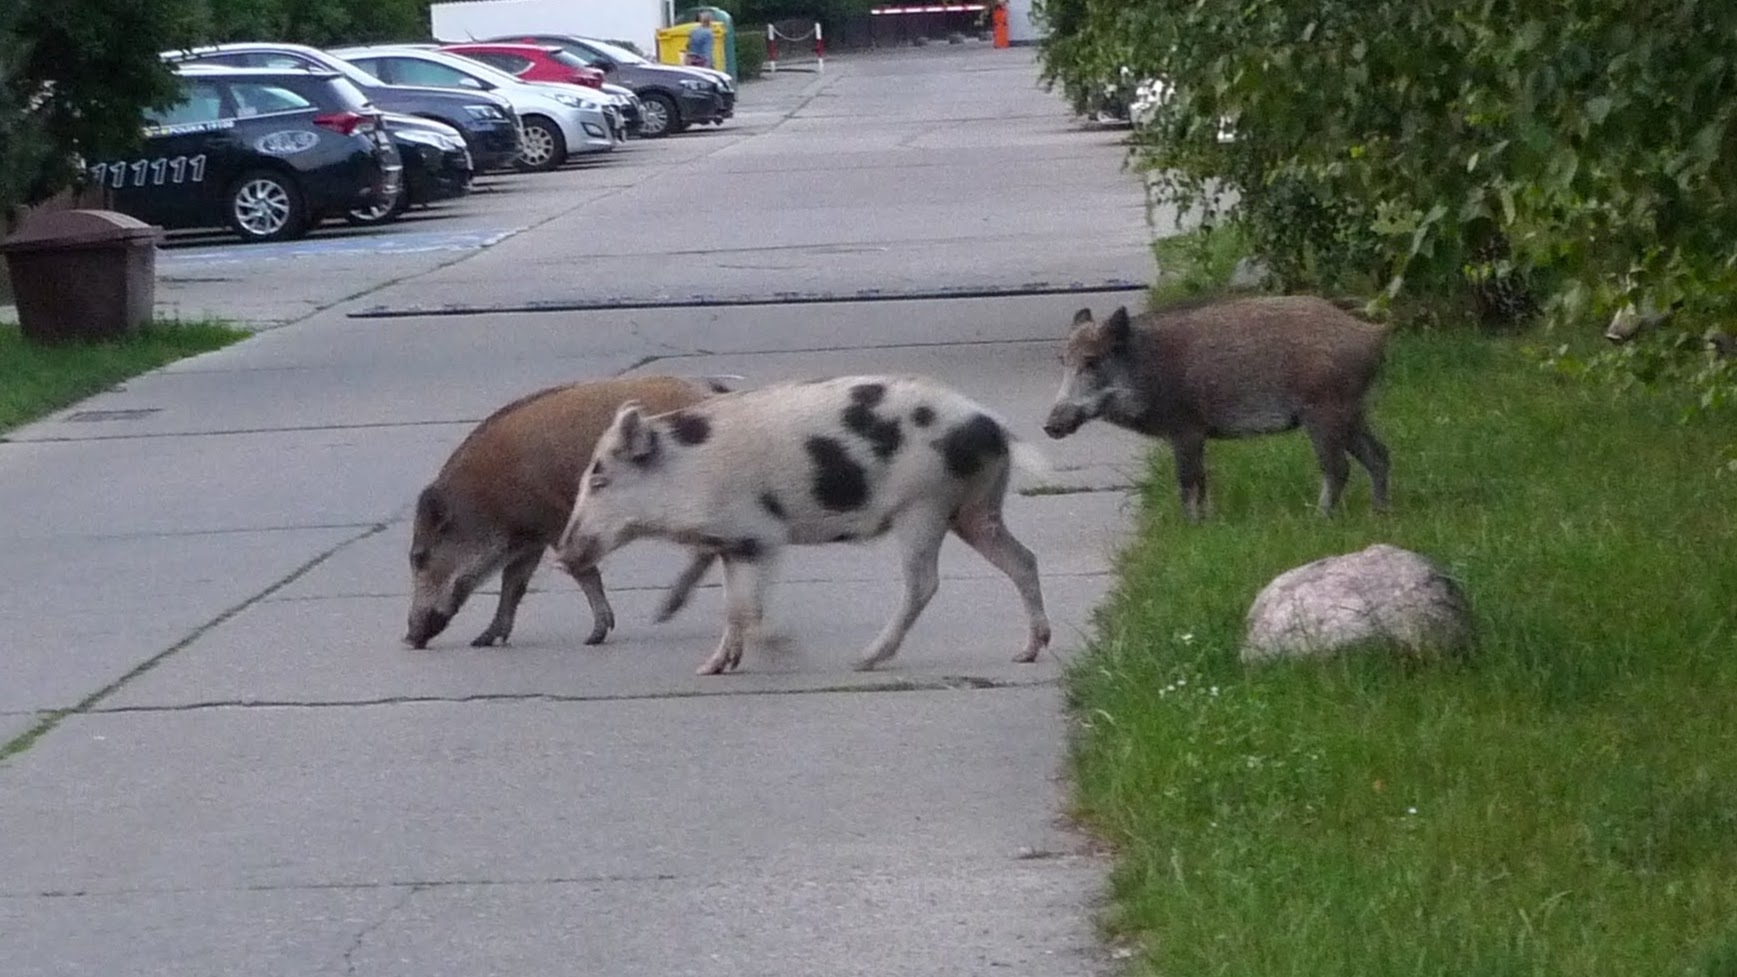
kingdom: Animalia
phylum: Chordata
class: Mammalia
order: Artiodactyla
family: Suidae
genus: Sus
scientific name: Sus scrofa
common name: Wild boar
